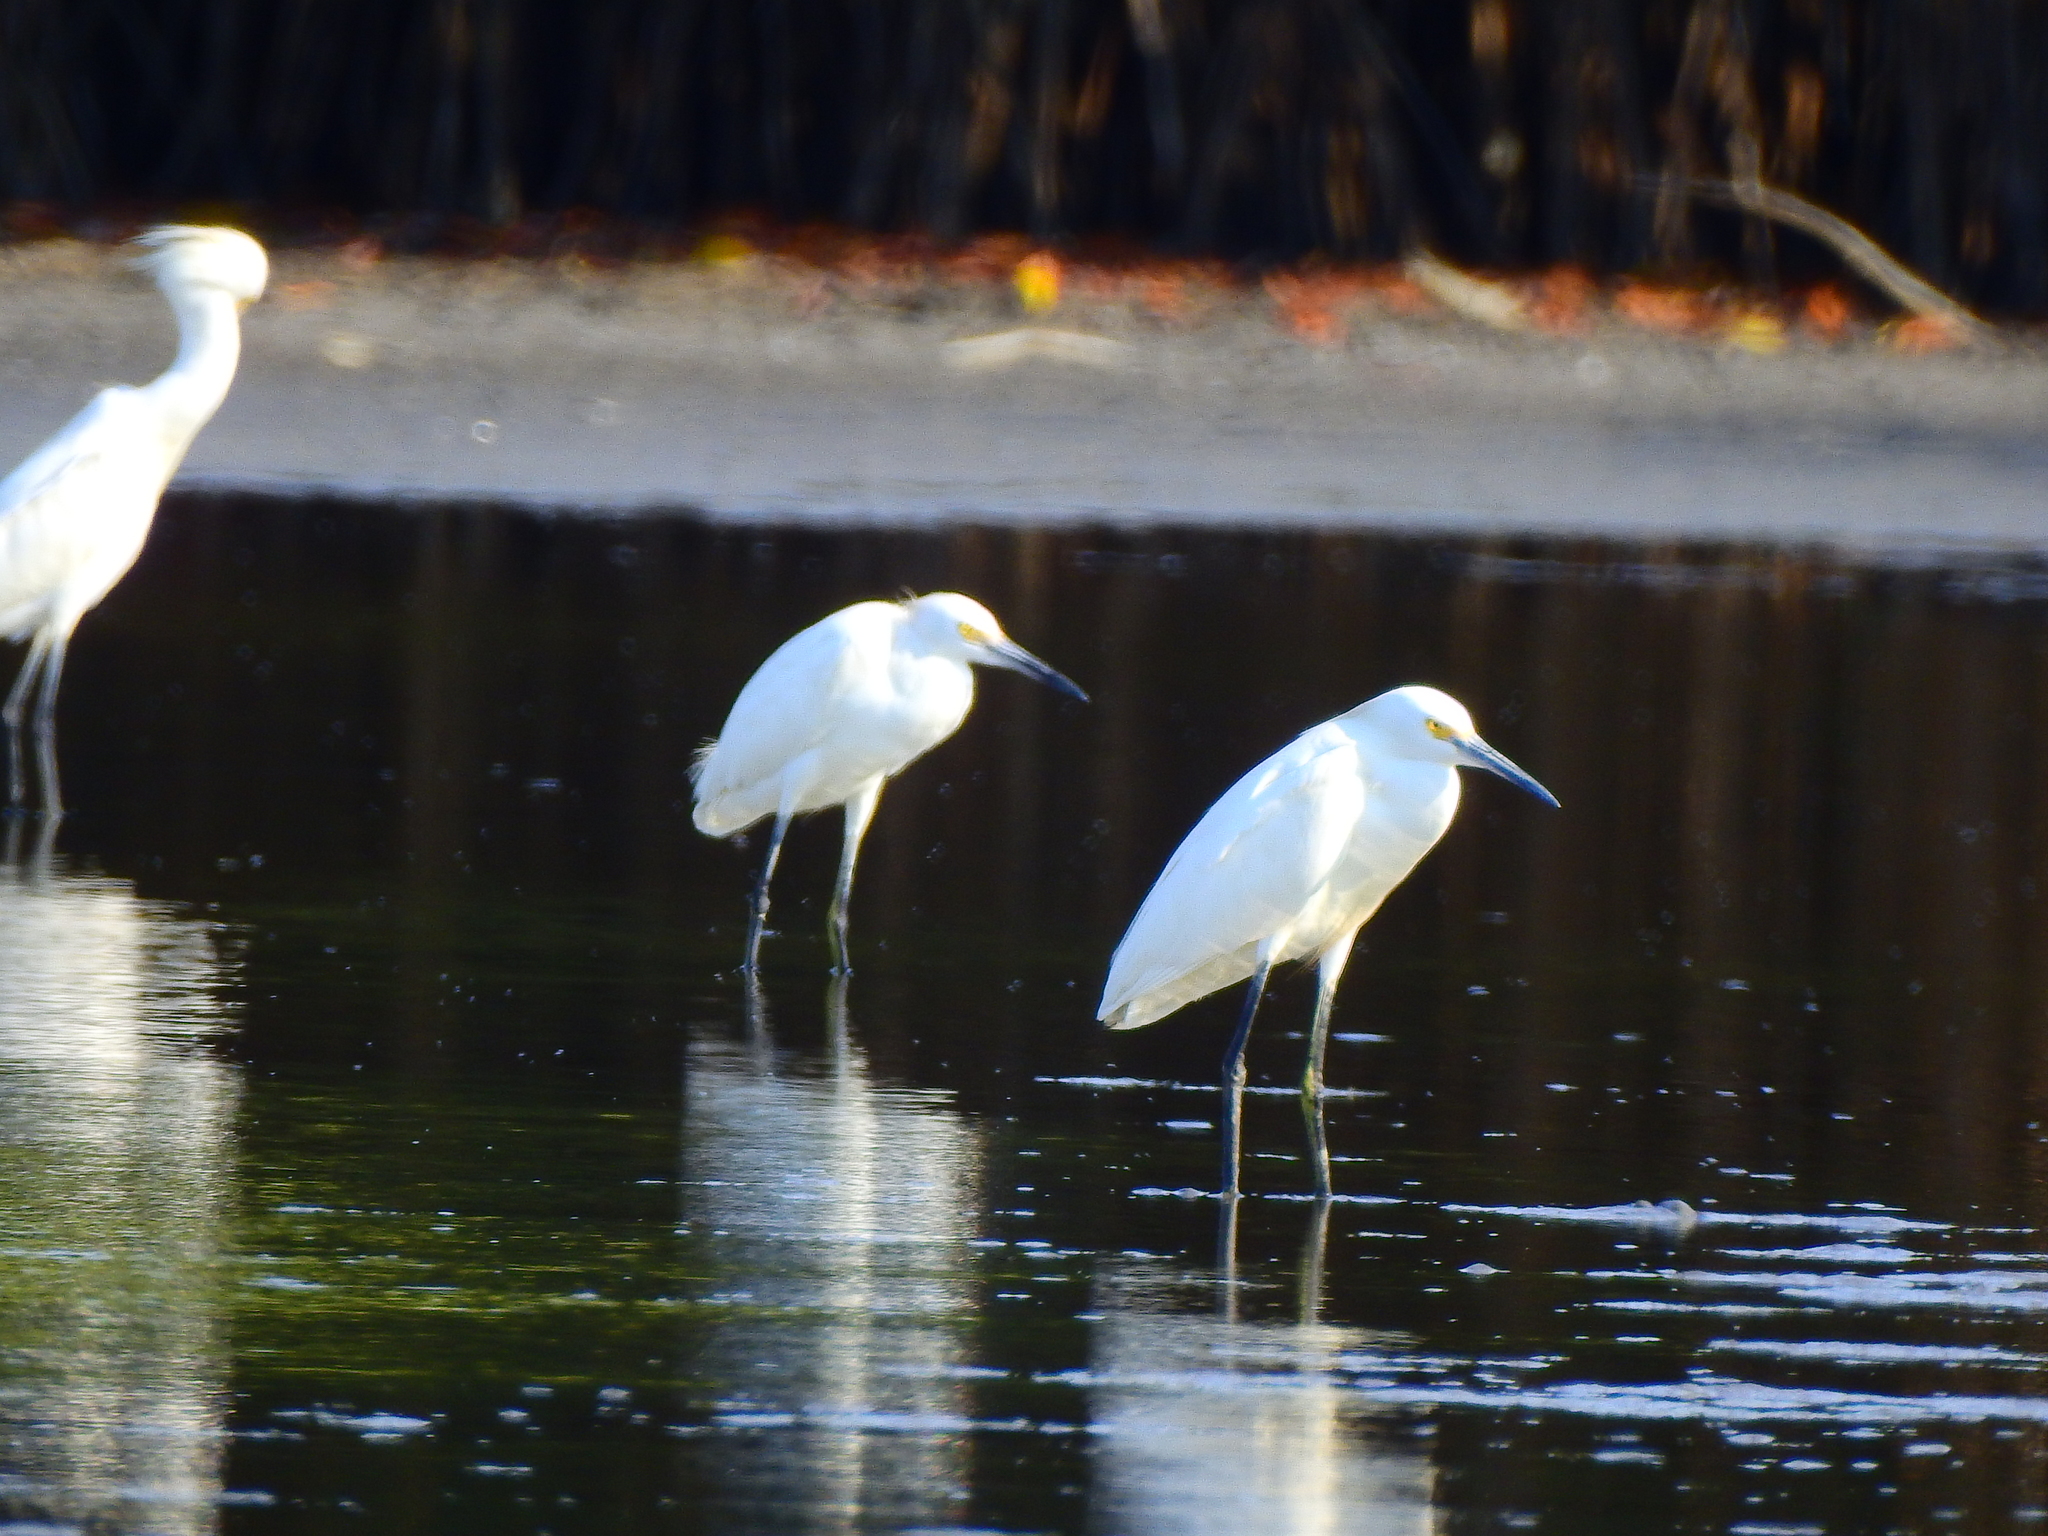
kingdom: Animalia
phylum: Chordata
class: Aves
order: Pelecaniformes
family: Ardeidae
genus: Egretta
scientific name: Egretta thula
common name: Snowy egret
